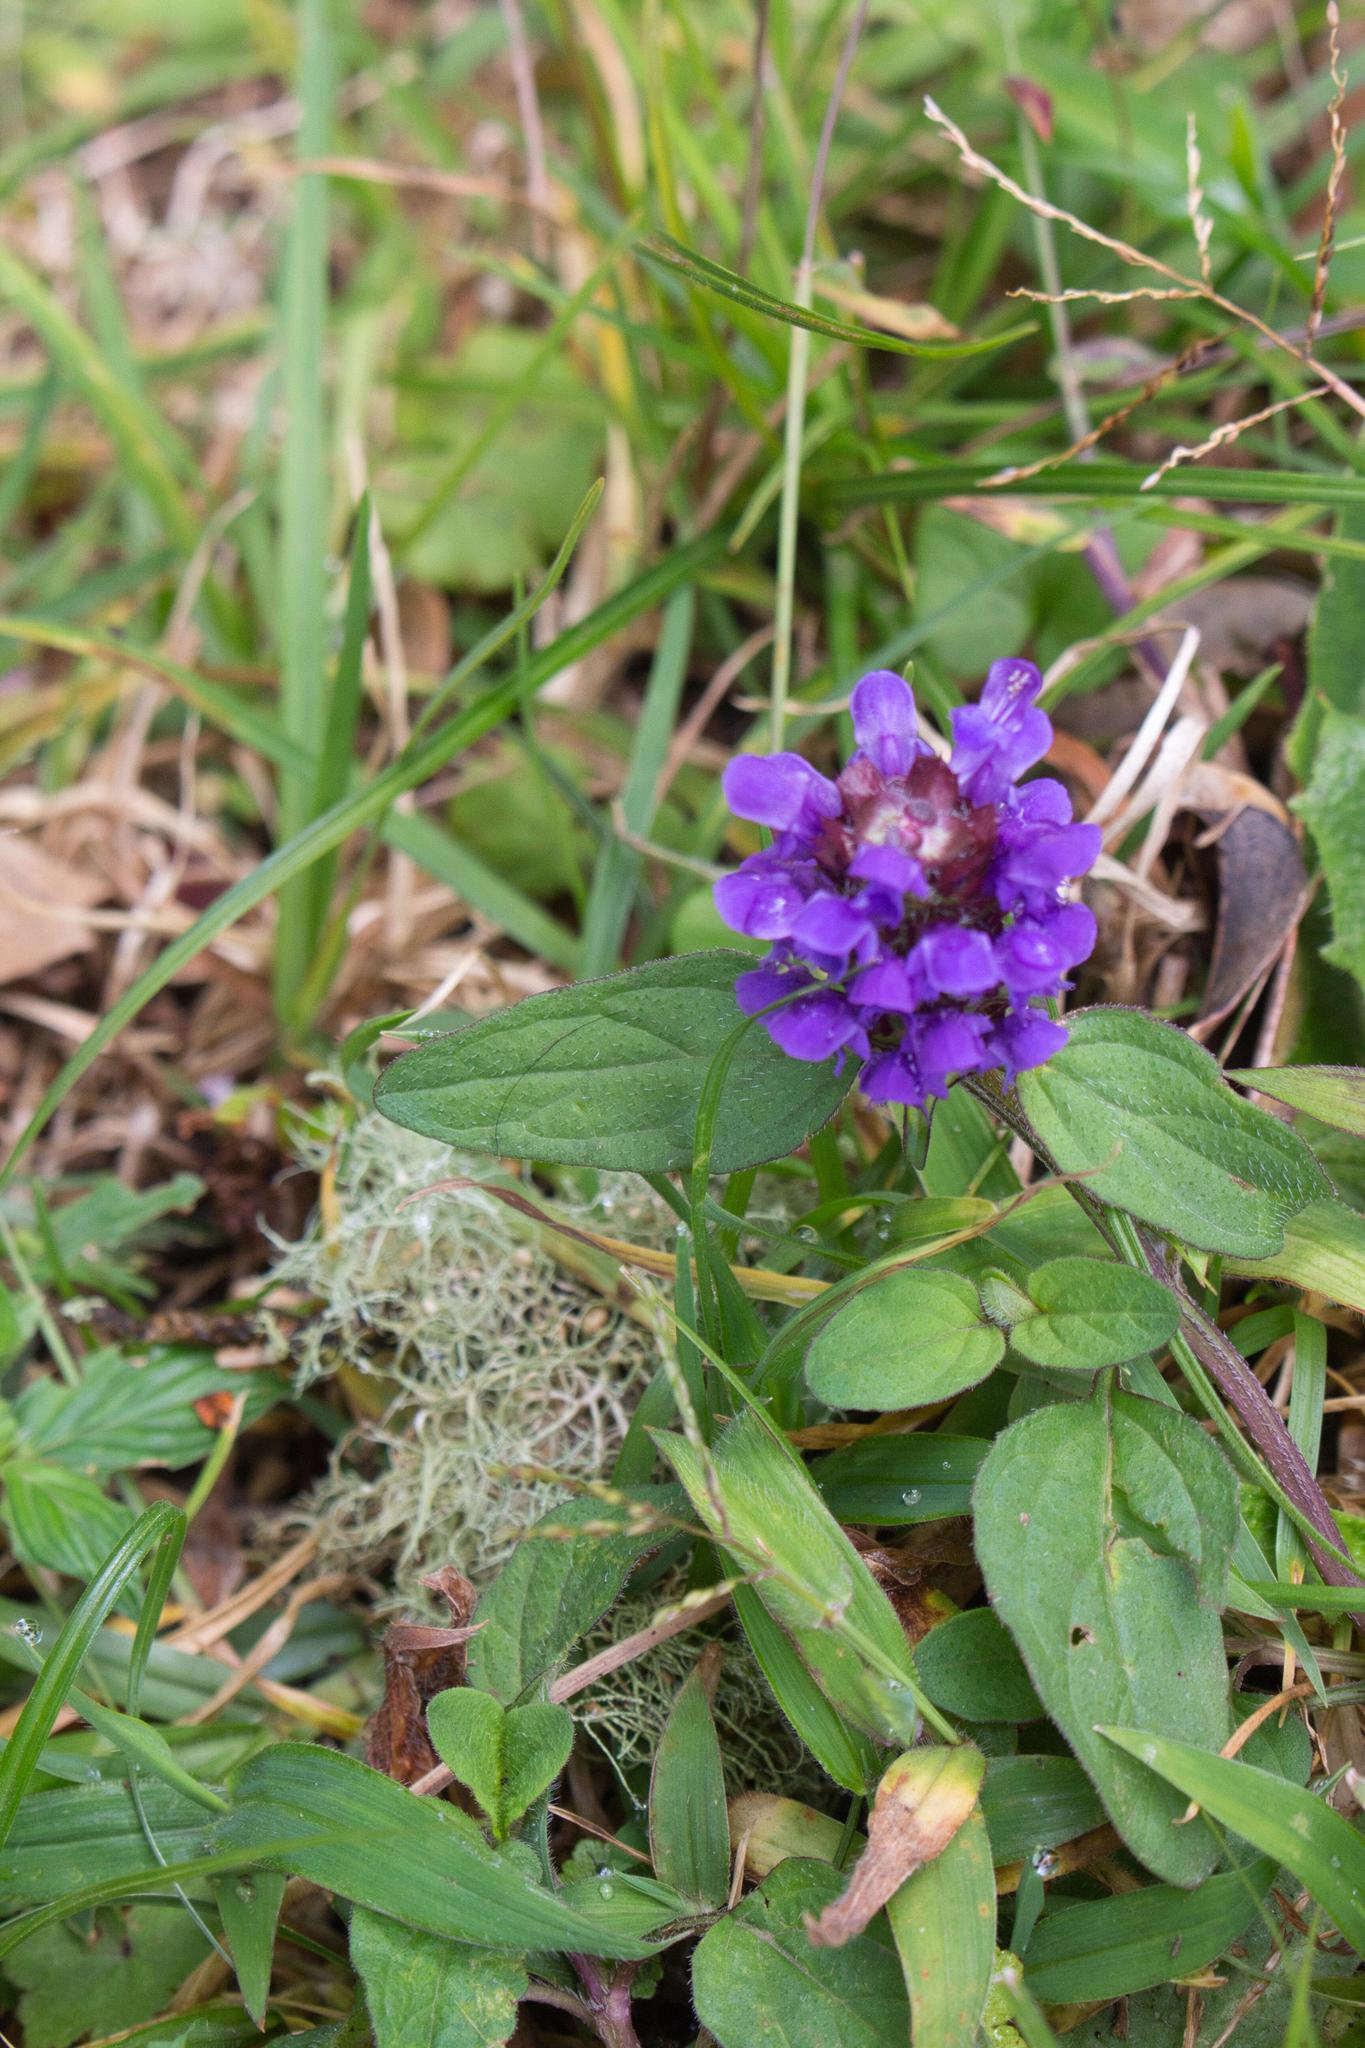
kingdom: Plantae
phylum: Tracheophyta
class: Magnoliopsida
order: Lamiales
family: Lamiaceae
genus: Prunella
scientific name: Prunella vulgaris
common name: Heal-all
